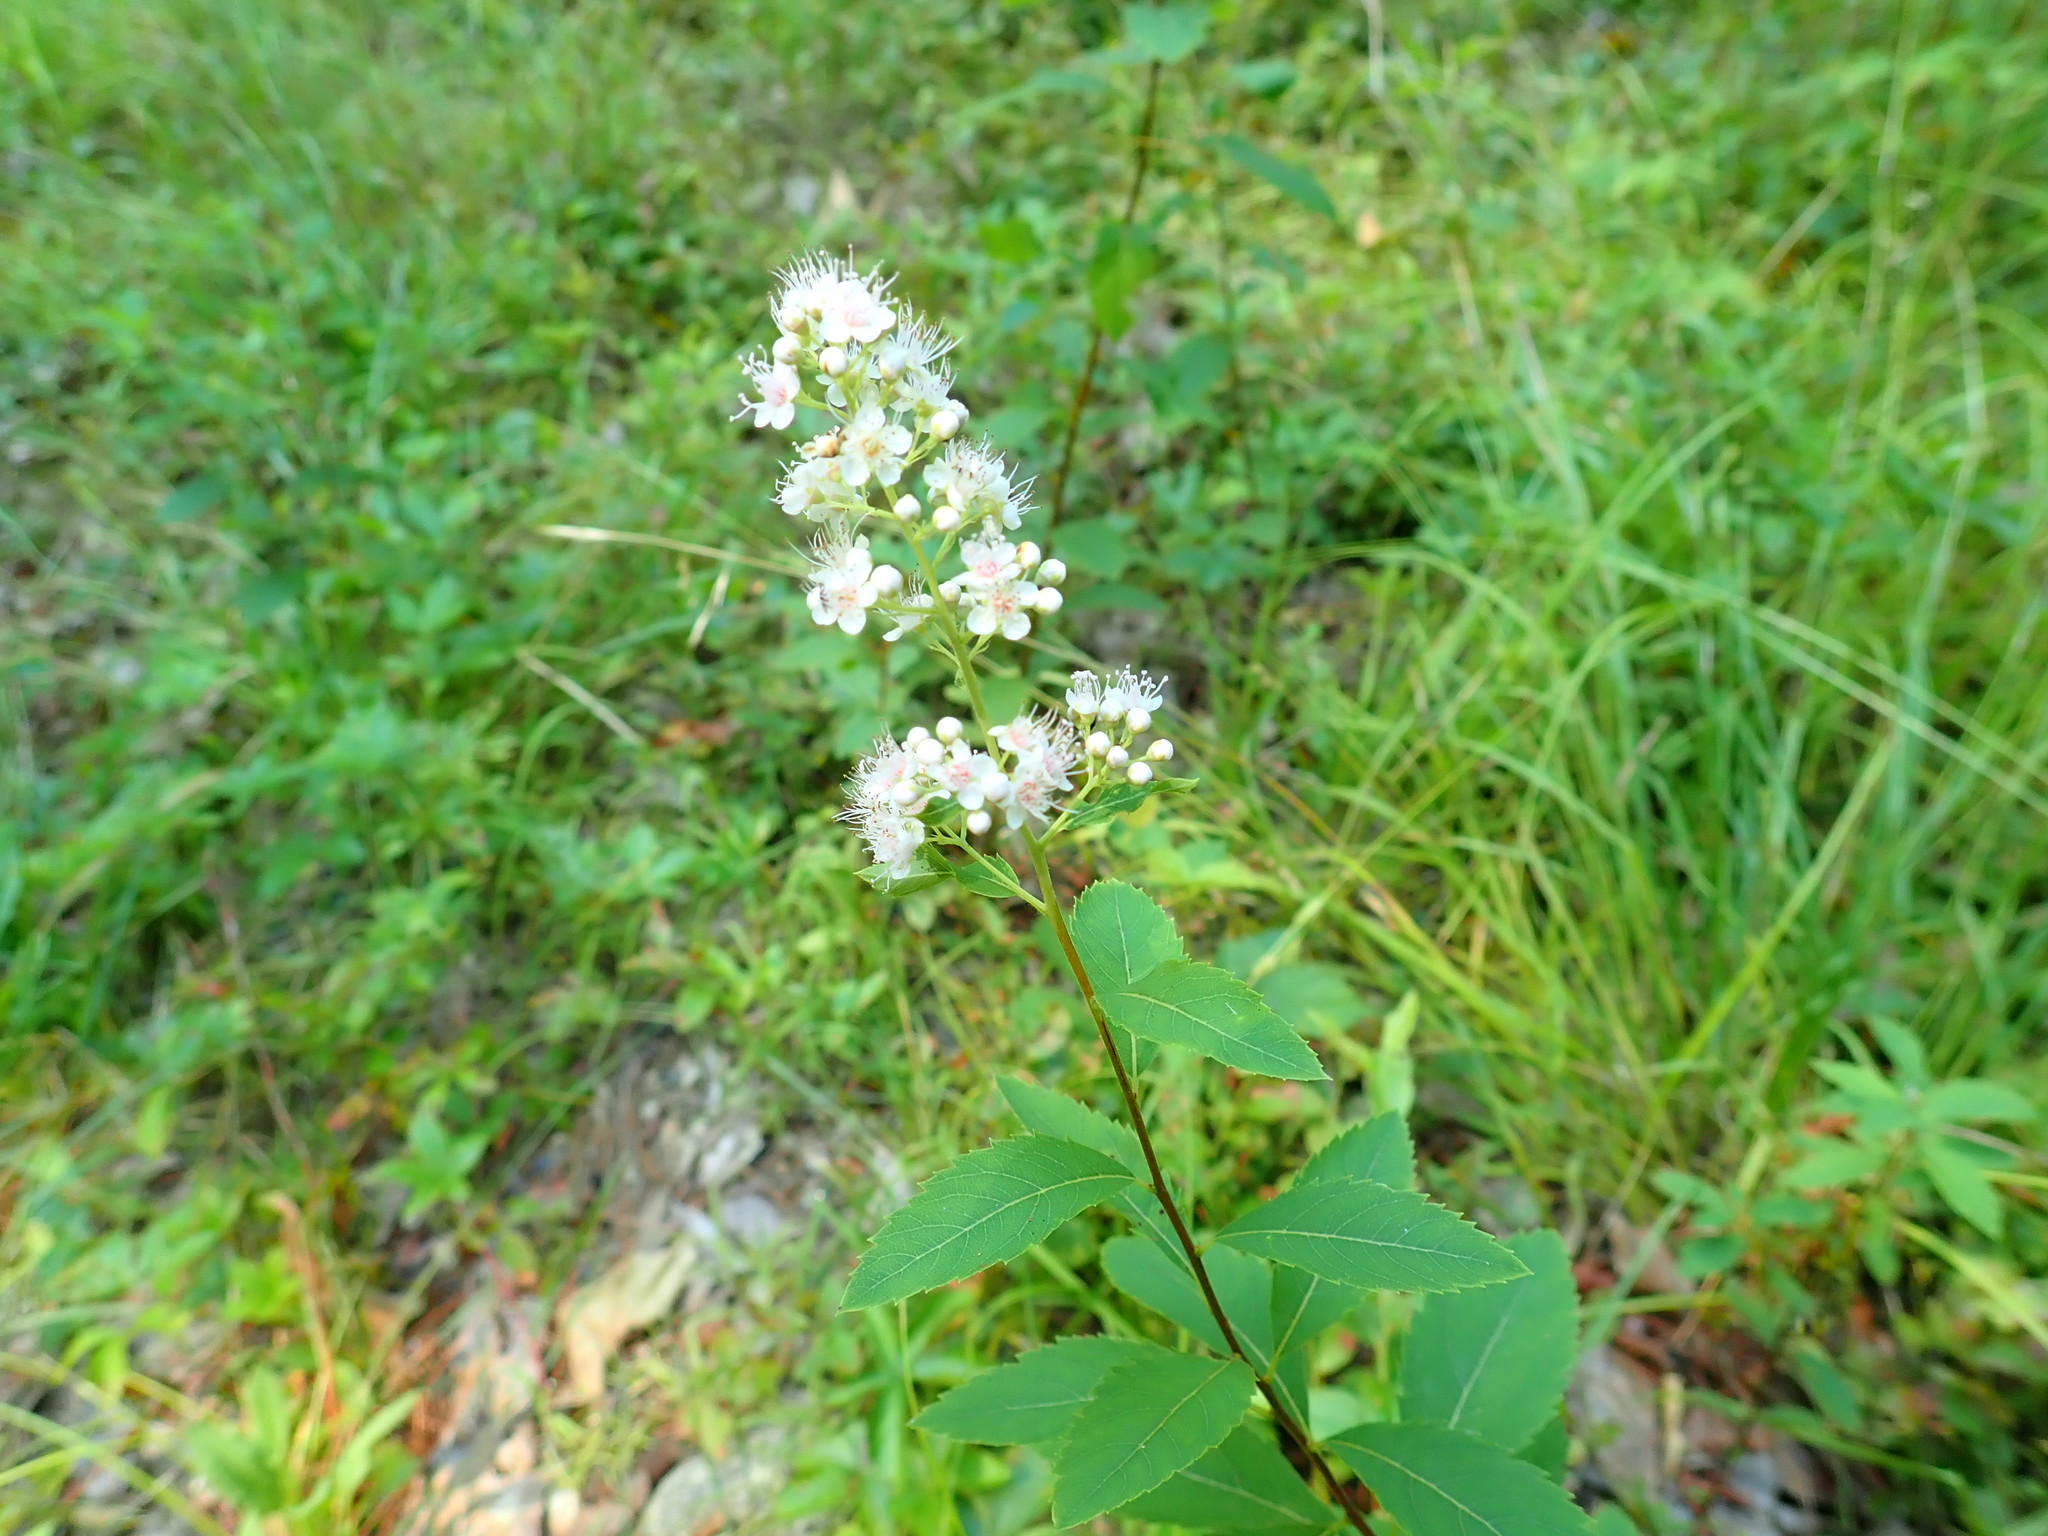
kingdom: Plantae
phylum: Tracheophyta
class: Magnoliopsida
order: Rosales
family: Rosaceae
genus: Spiraea
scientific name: Spiraea alba
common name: Pale bridewort
